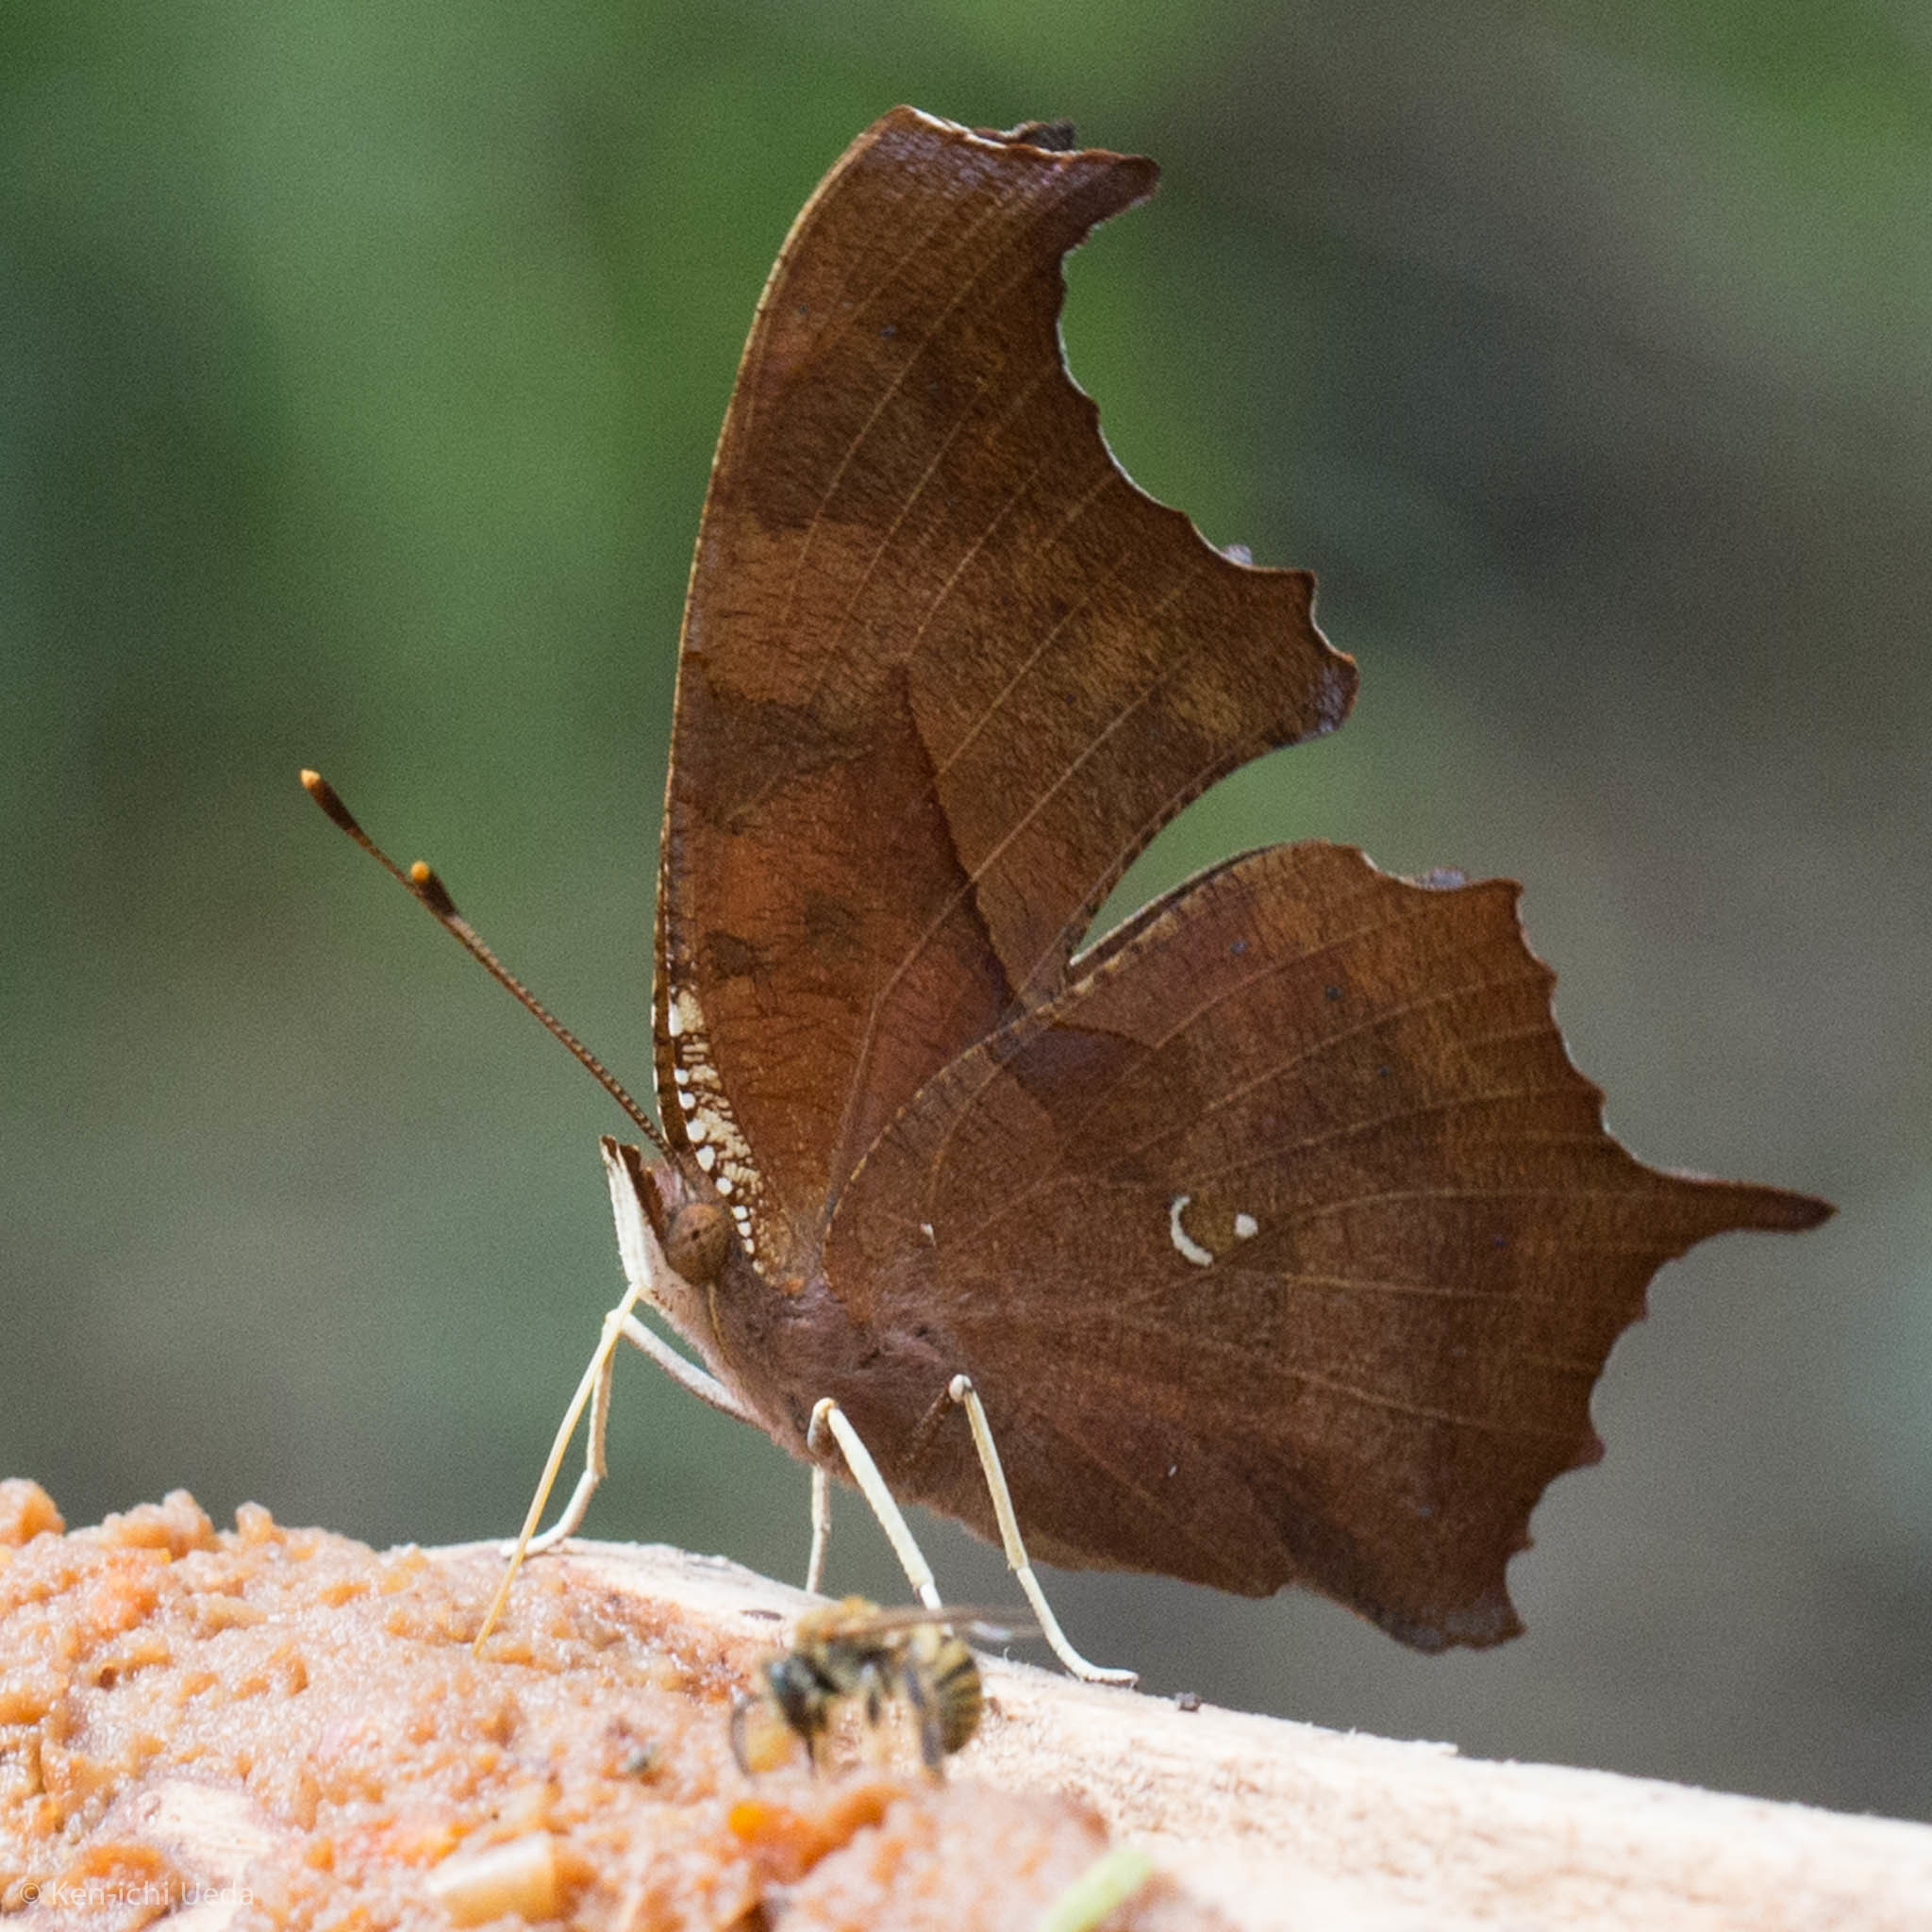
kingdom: Animalia
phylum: Arthropoda
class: Insecta
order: Lepidoptera
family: Nymphalidae
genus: Polygonia
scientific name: Polygonia interrogationis
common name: Question mark
